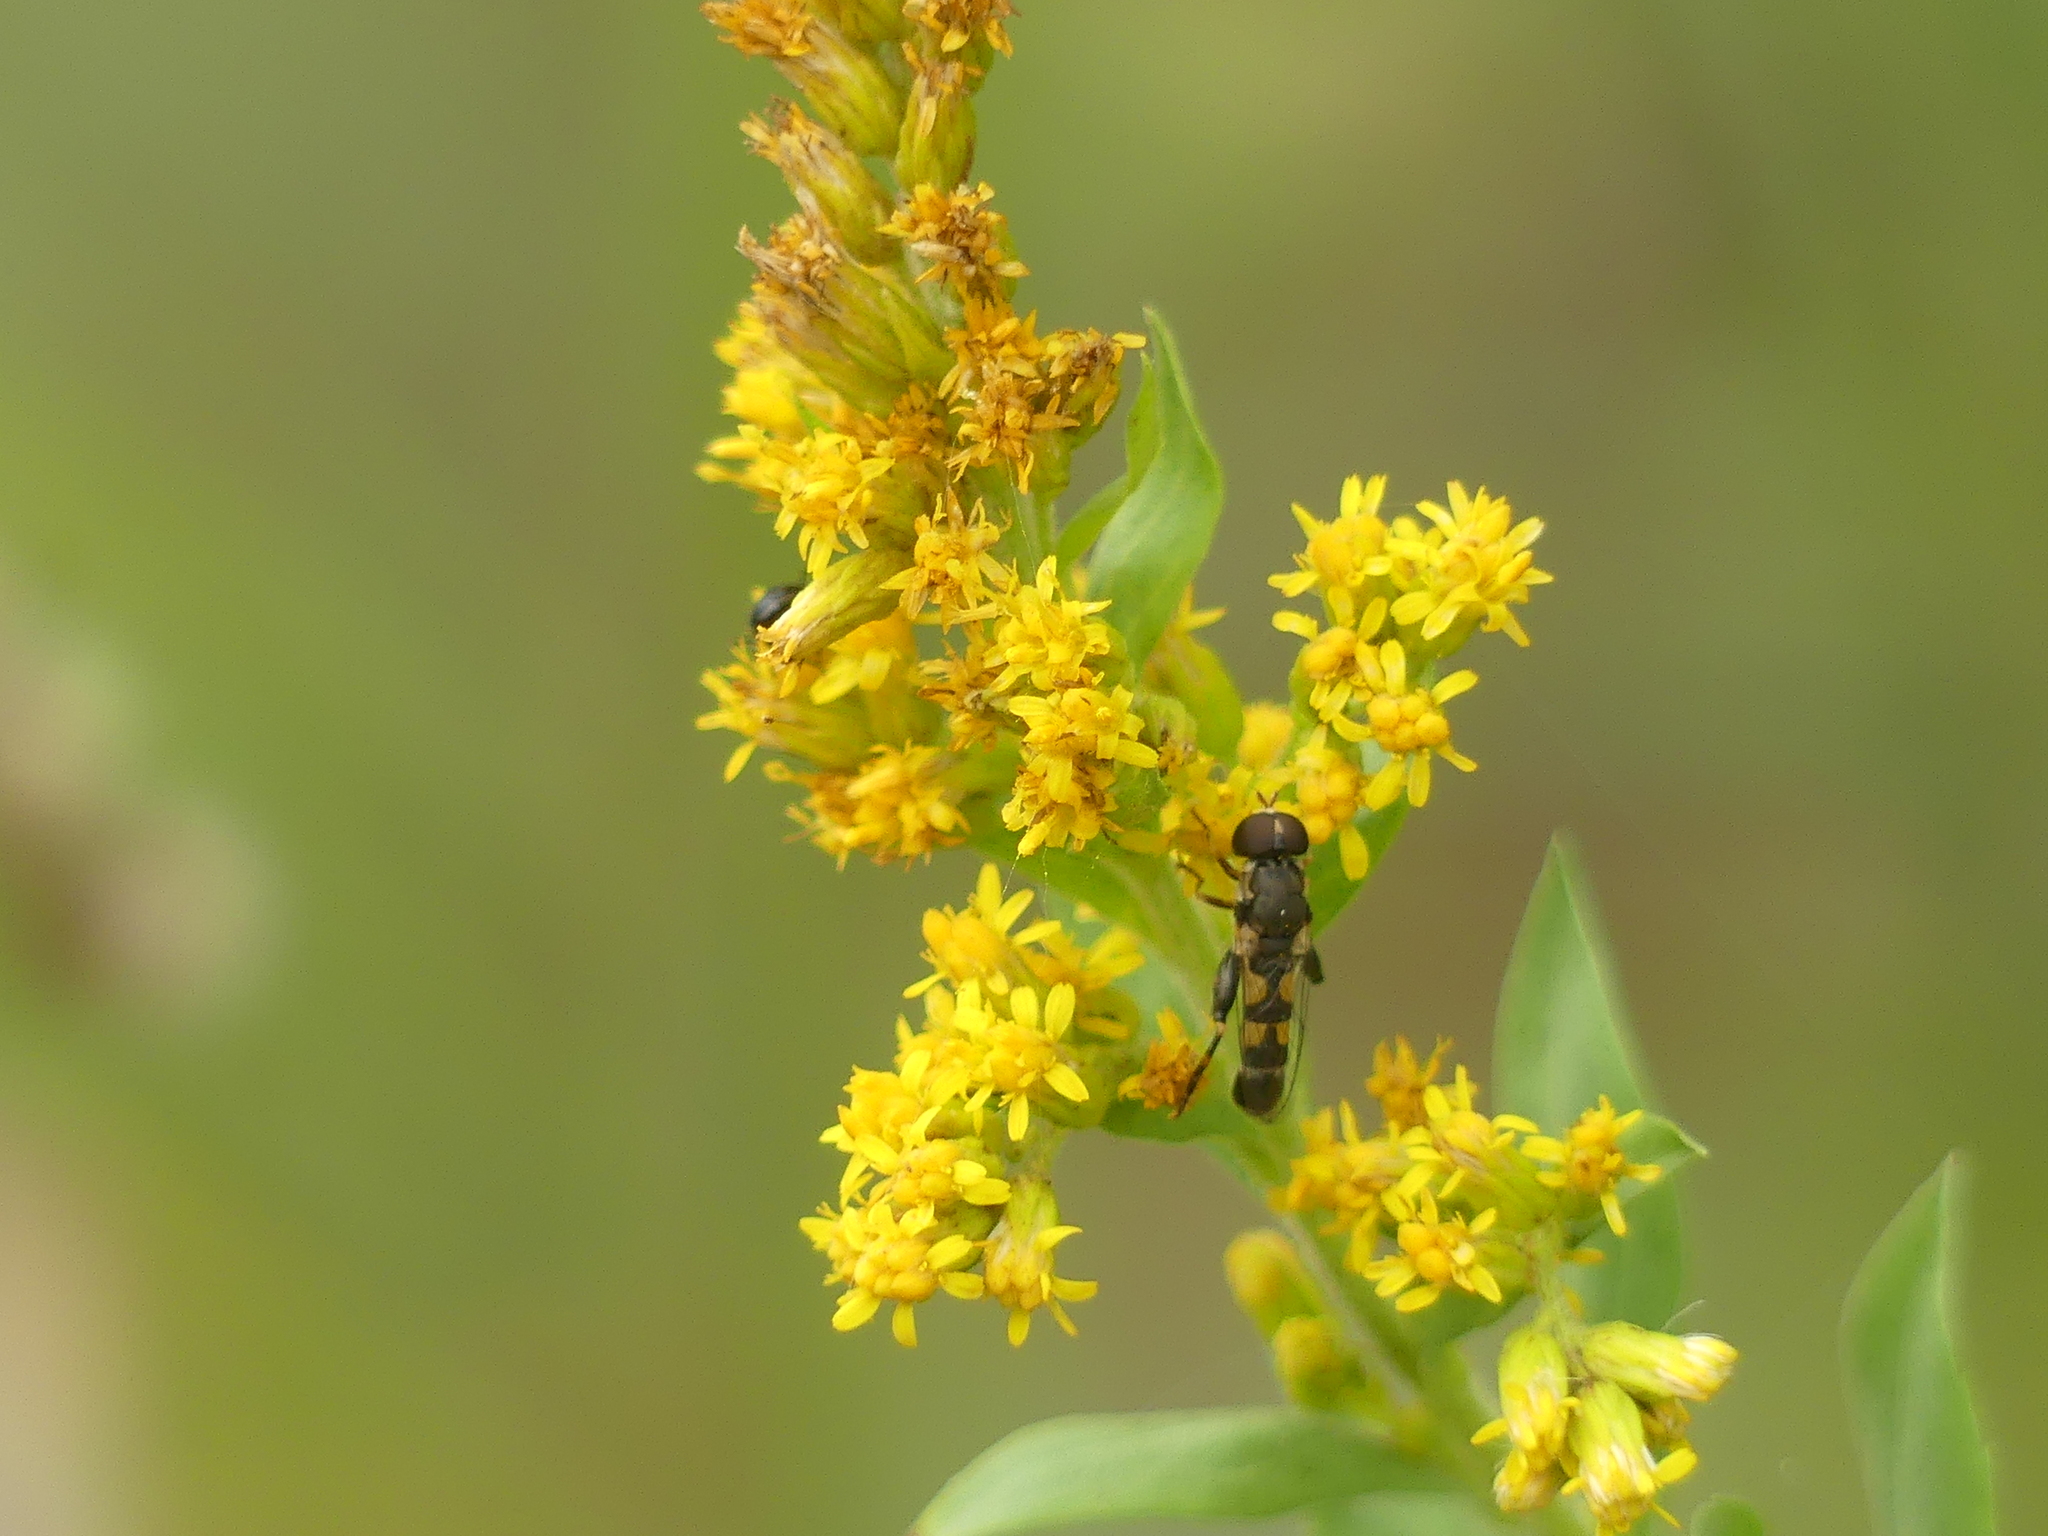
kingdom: Animalia
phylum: Arthropoda
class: Insecta
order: Diptera
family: Syrphidae
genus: Syritta
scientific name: Syritta pipiens
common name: Hover fly
